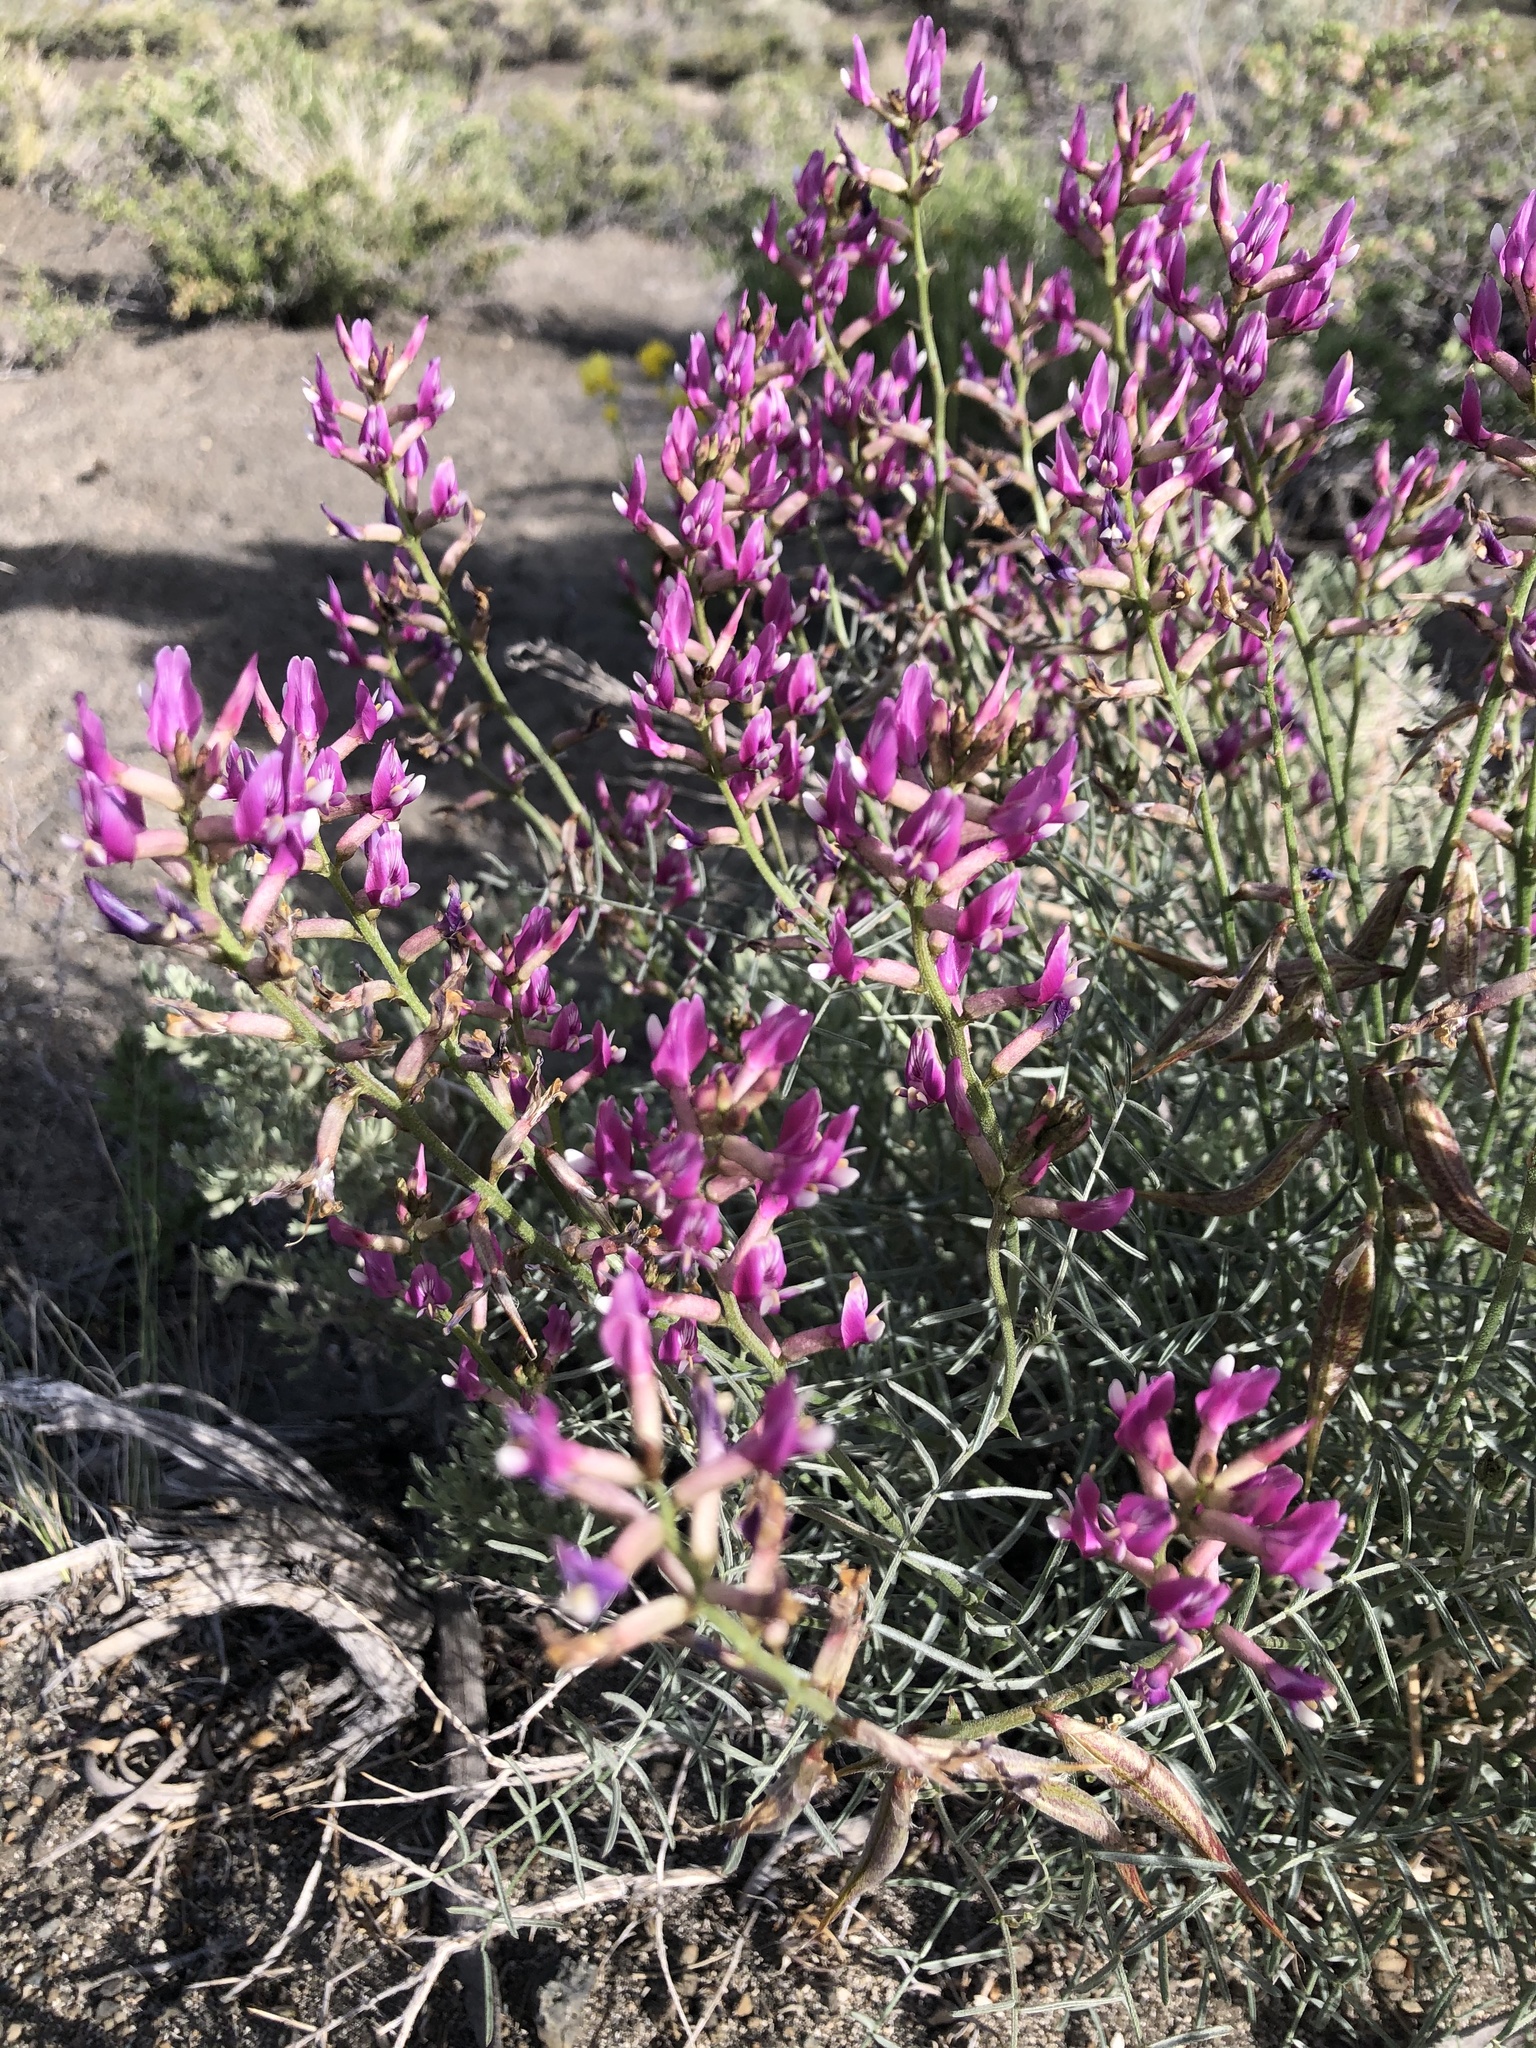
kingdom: Plantae
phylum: Tracheophyta
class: Magnoliopsida
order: Fabales
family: Fabaceae
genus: Astragalus
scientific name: Astragalus casei
